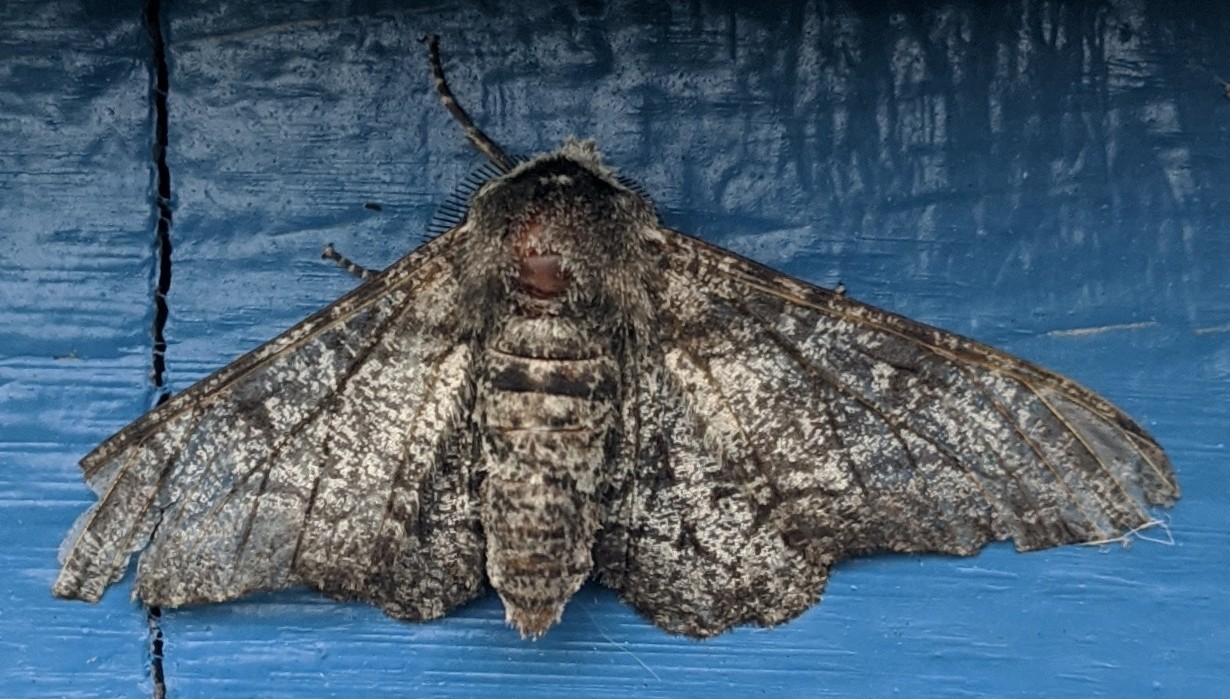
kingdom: Animalia
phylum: Arthropoda
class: Insecta
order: Lepidoptera
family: Geometridae
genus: Biston
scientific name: Biston betularia
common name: Peppered moth
